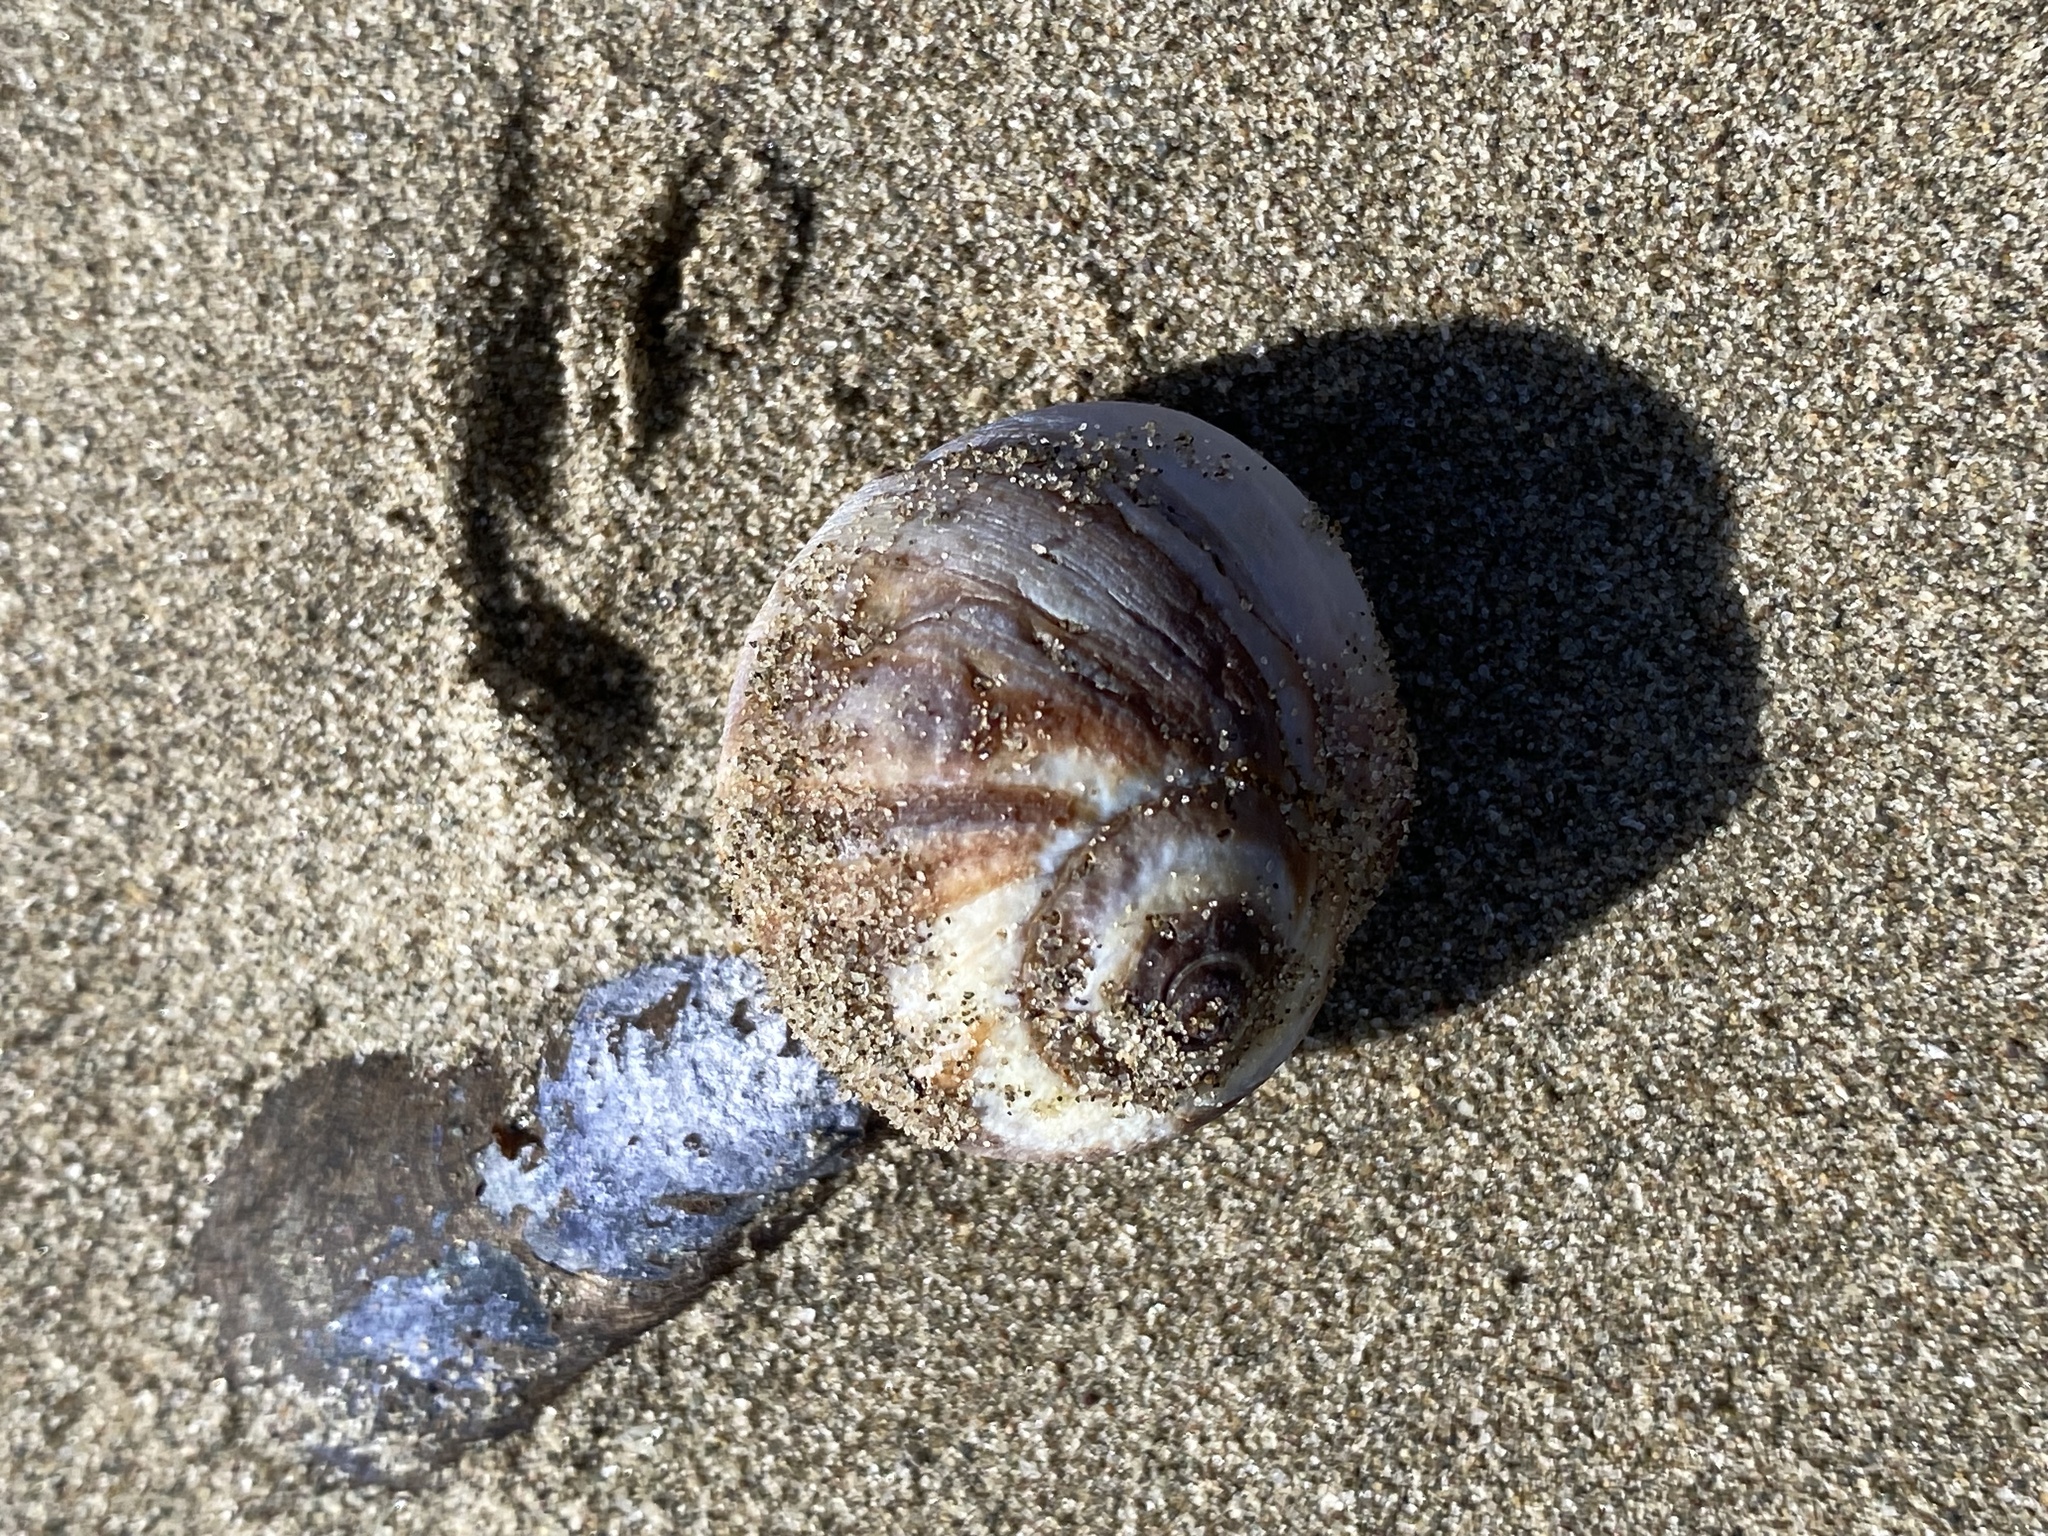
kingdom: Animalia
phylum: Mollusca
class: Gastropoda
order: Littorinimorpha
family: Naticidae
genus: Euspira
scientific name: Euspira heros
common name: Common northern moonsnail
